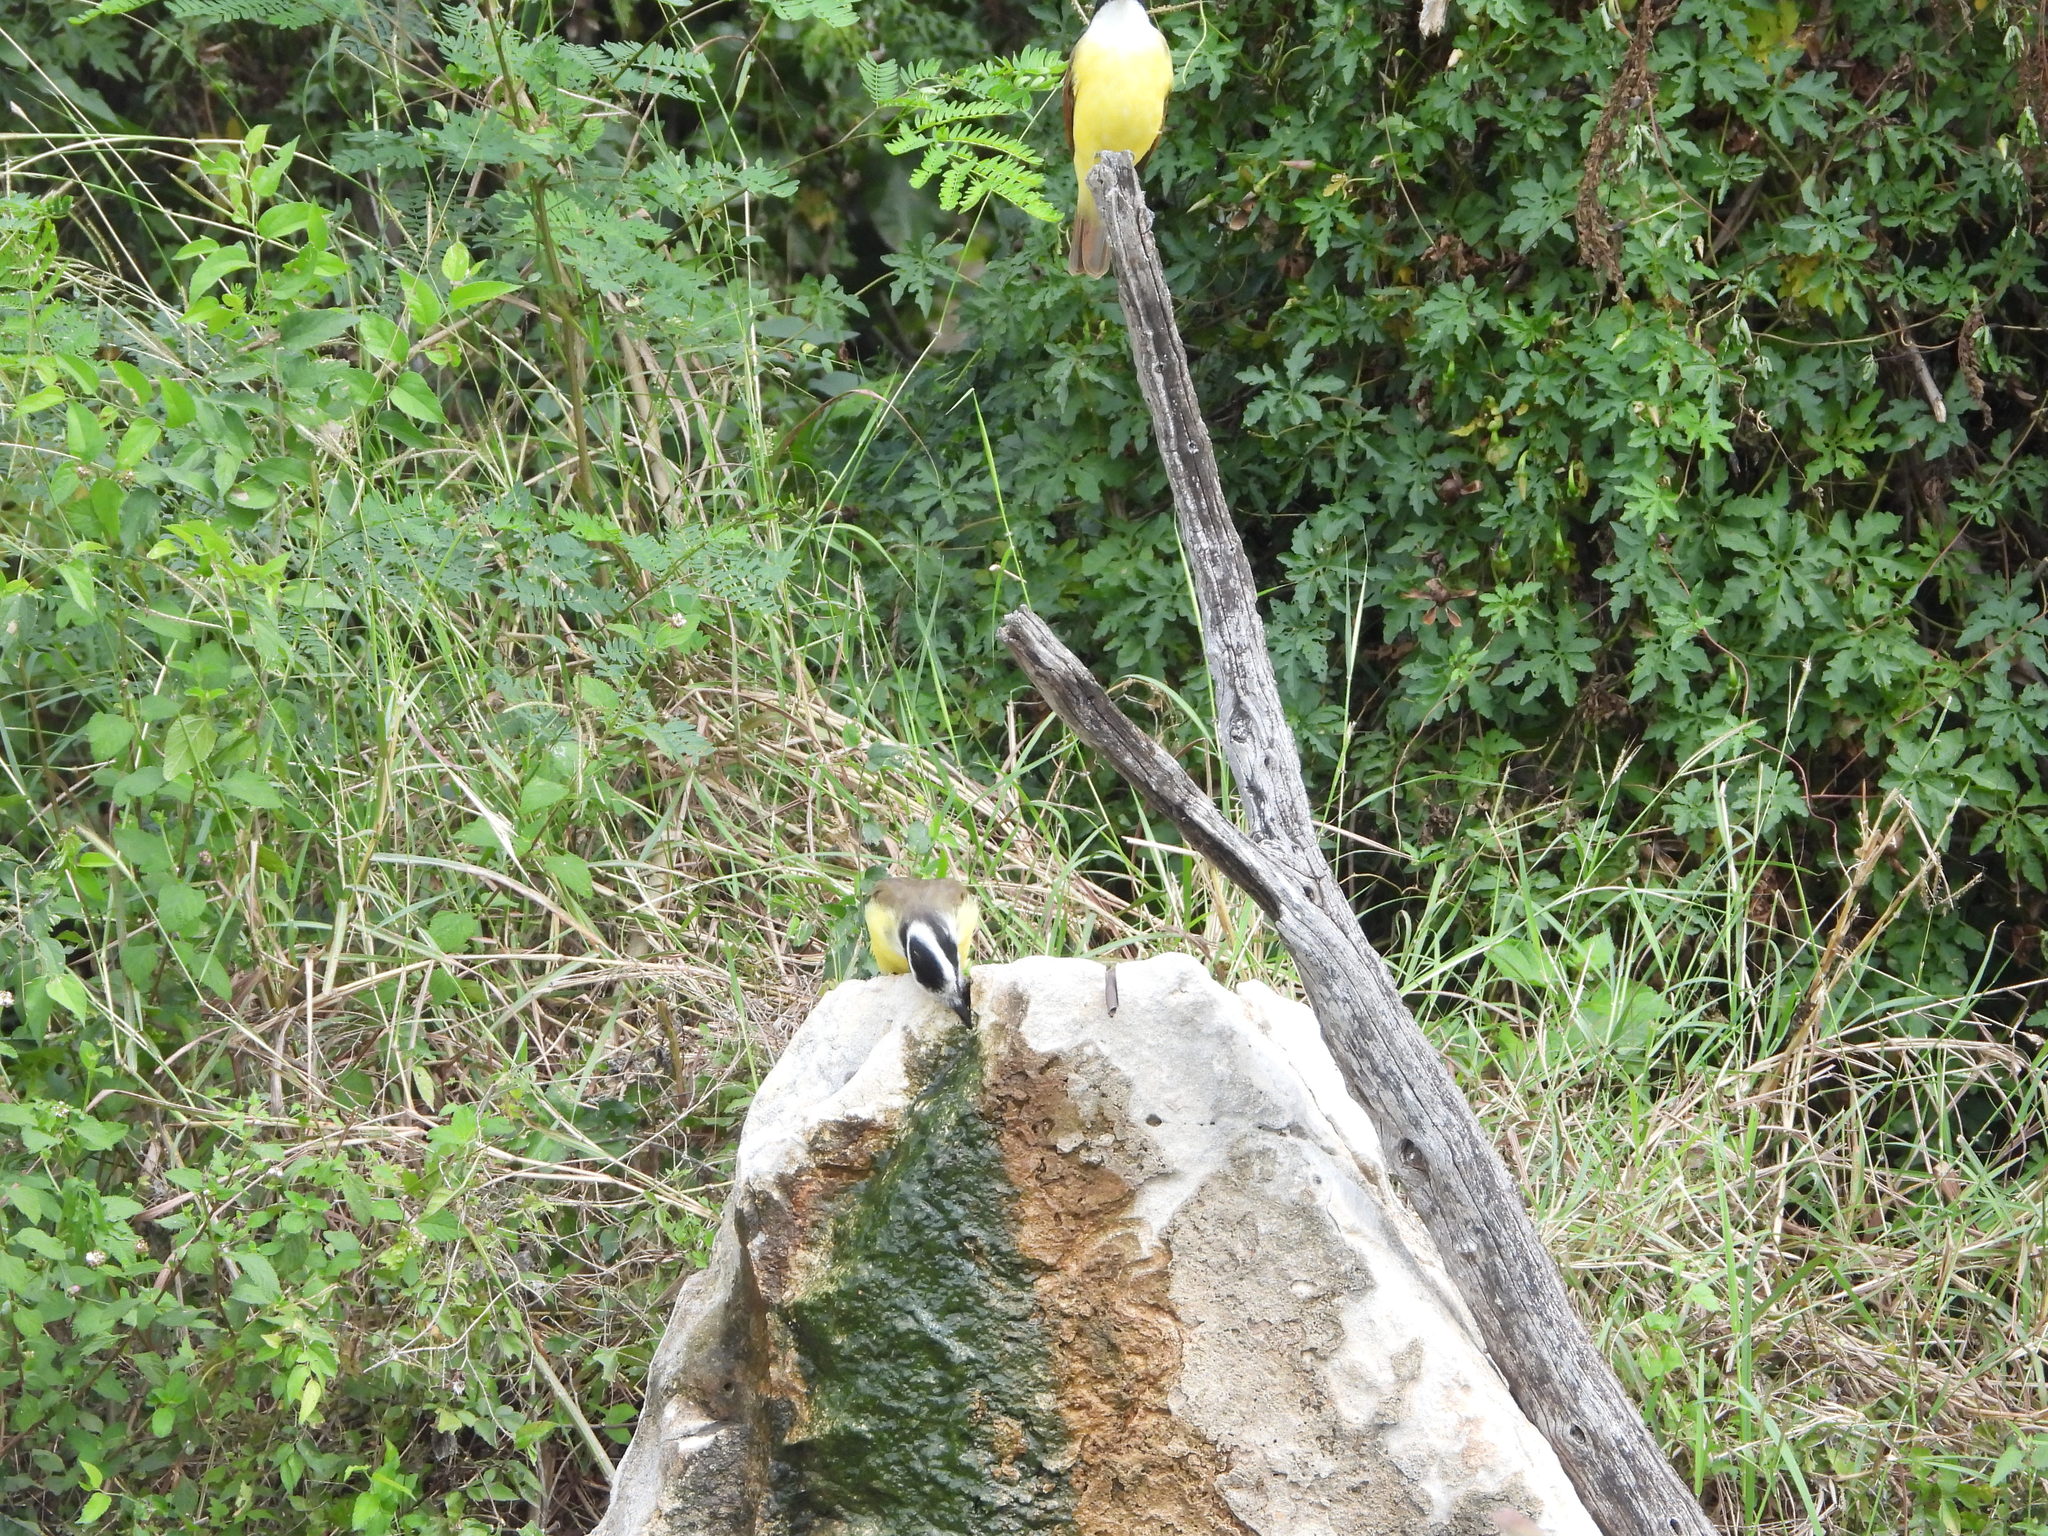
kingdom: Animalia
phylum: Chordata
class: Aves
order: Passeriformes
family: Tyrannidae
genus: Pitangus
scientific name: Pitangus sulphuratus
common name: Great kiskadee
